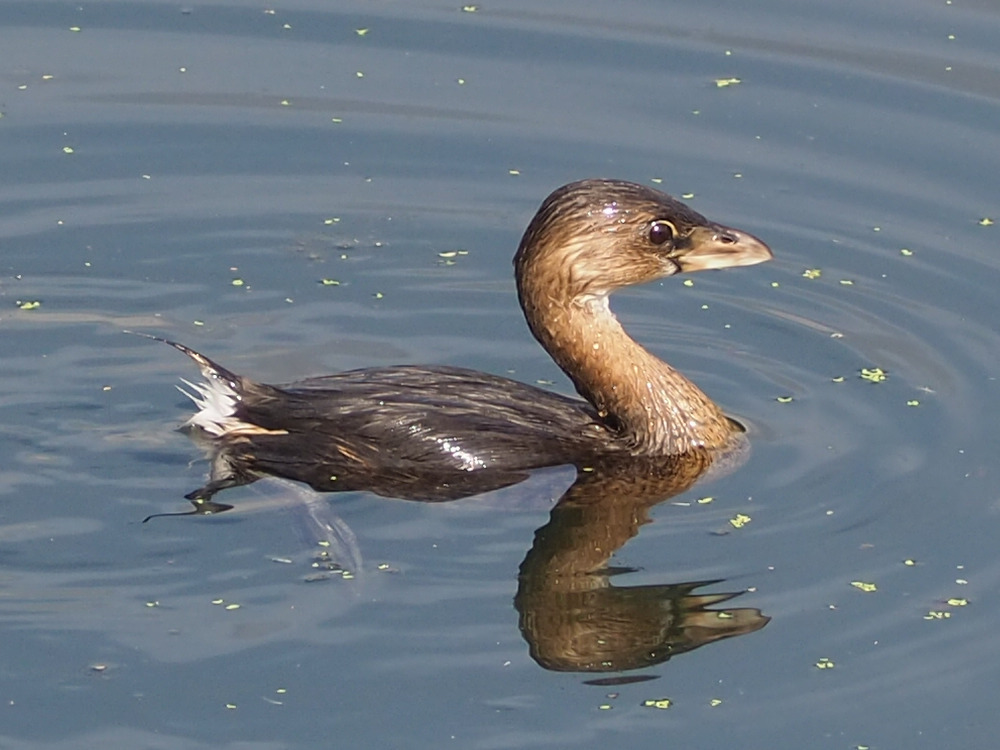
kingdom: Animalia
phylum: Chordata
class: Aves
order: Podicipediformes
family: Podicipedidae
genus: Podilymbus
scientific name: Podilymbus podiceps
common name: Pied-billed grebe
